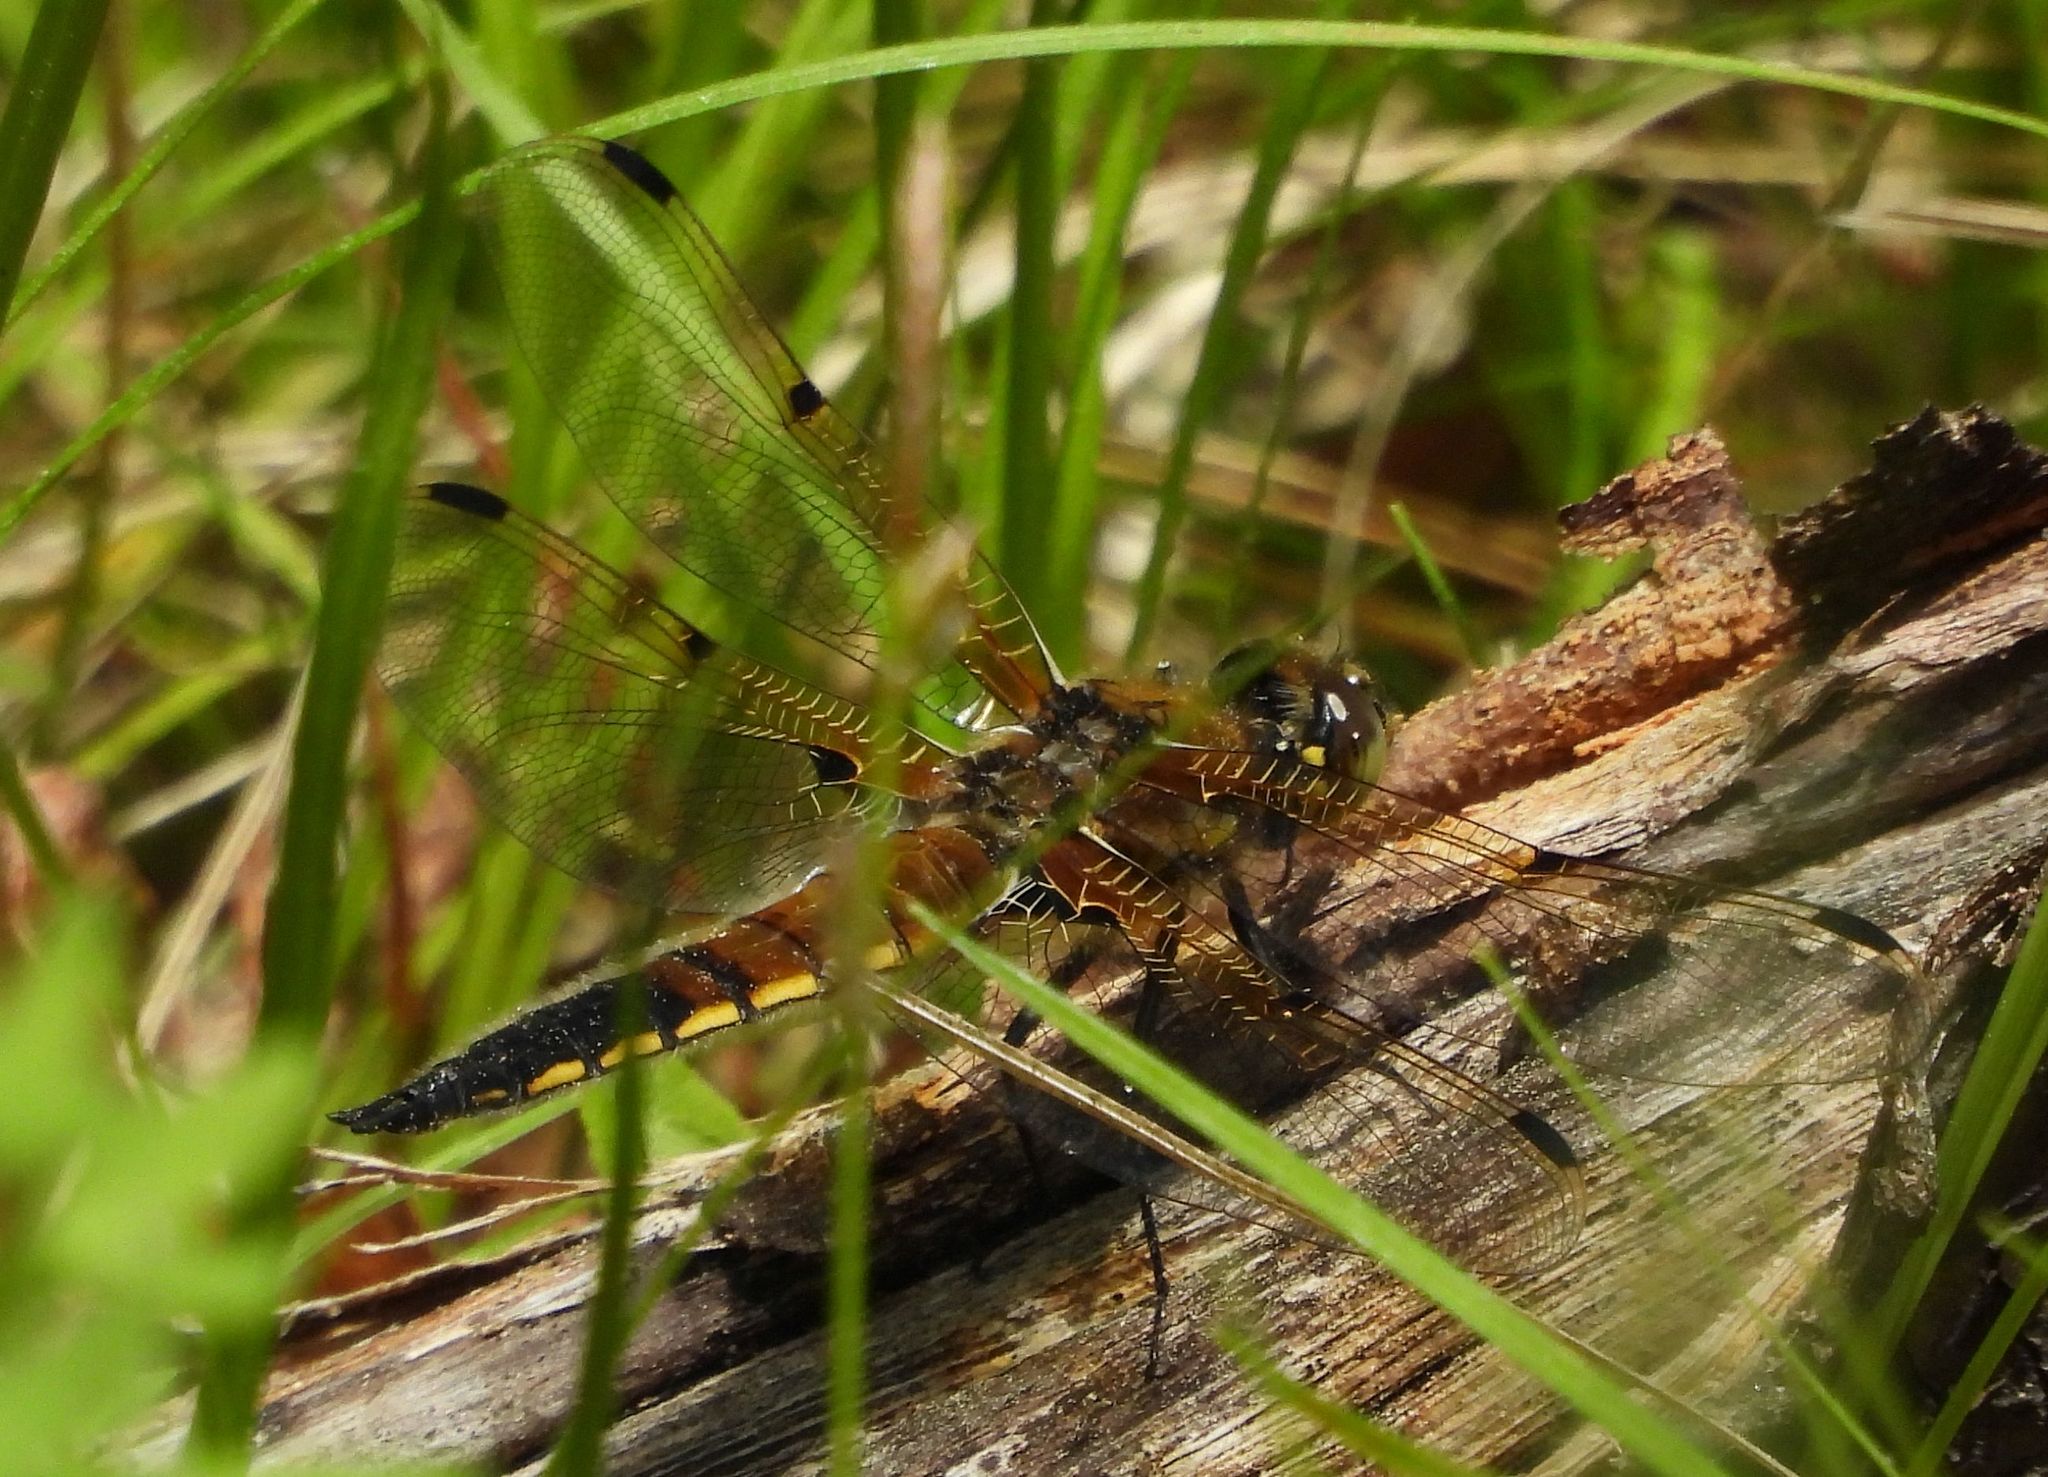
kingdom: Animalia
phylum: Arthropoda
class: Insecta
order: Odonata
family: Libellulidae
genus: Libellula
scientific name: Libellula quadrimaculata
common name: Four-spotted chaser
